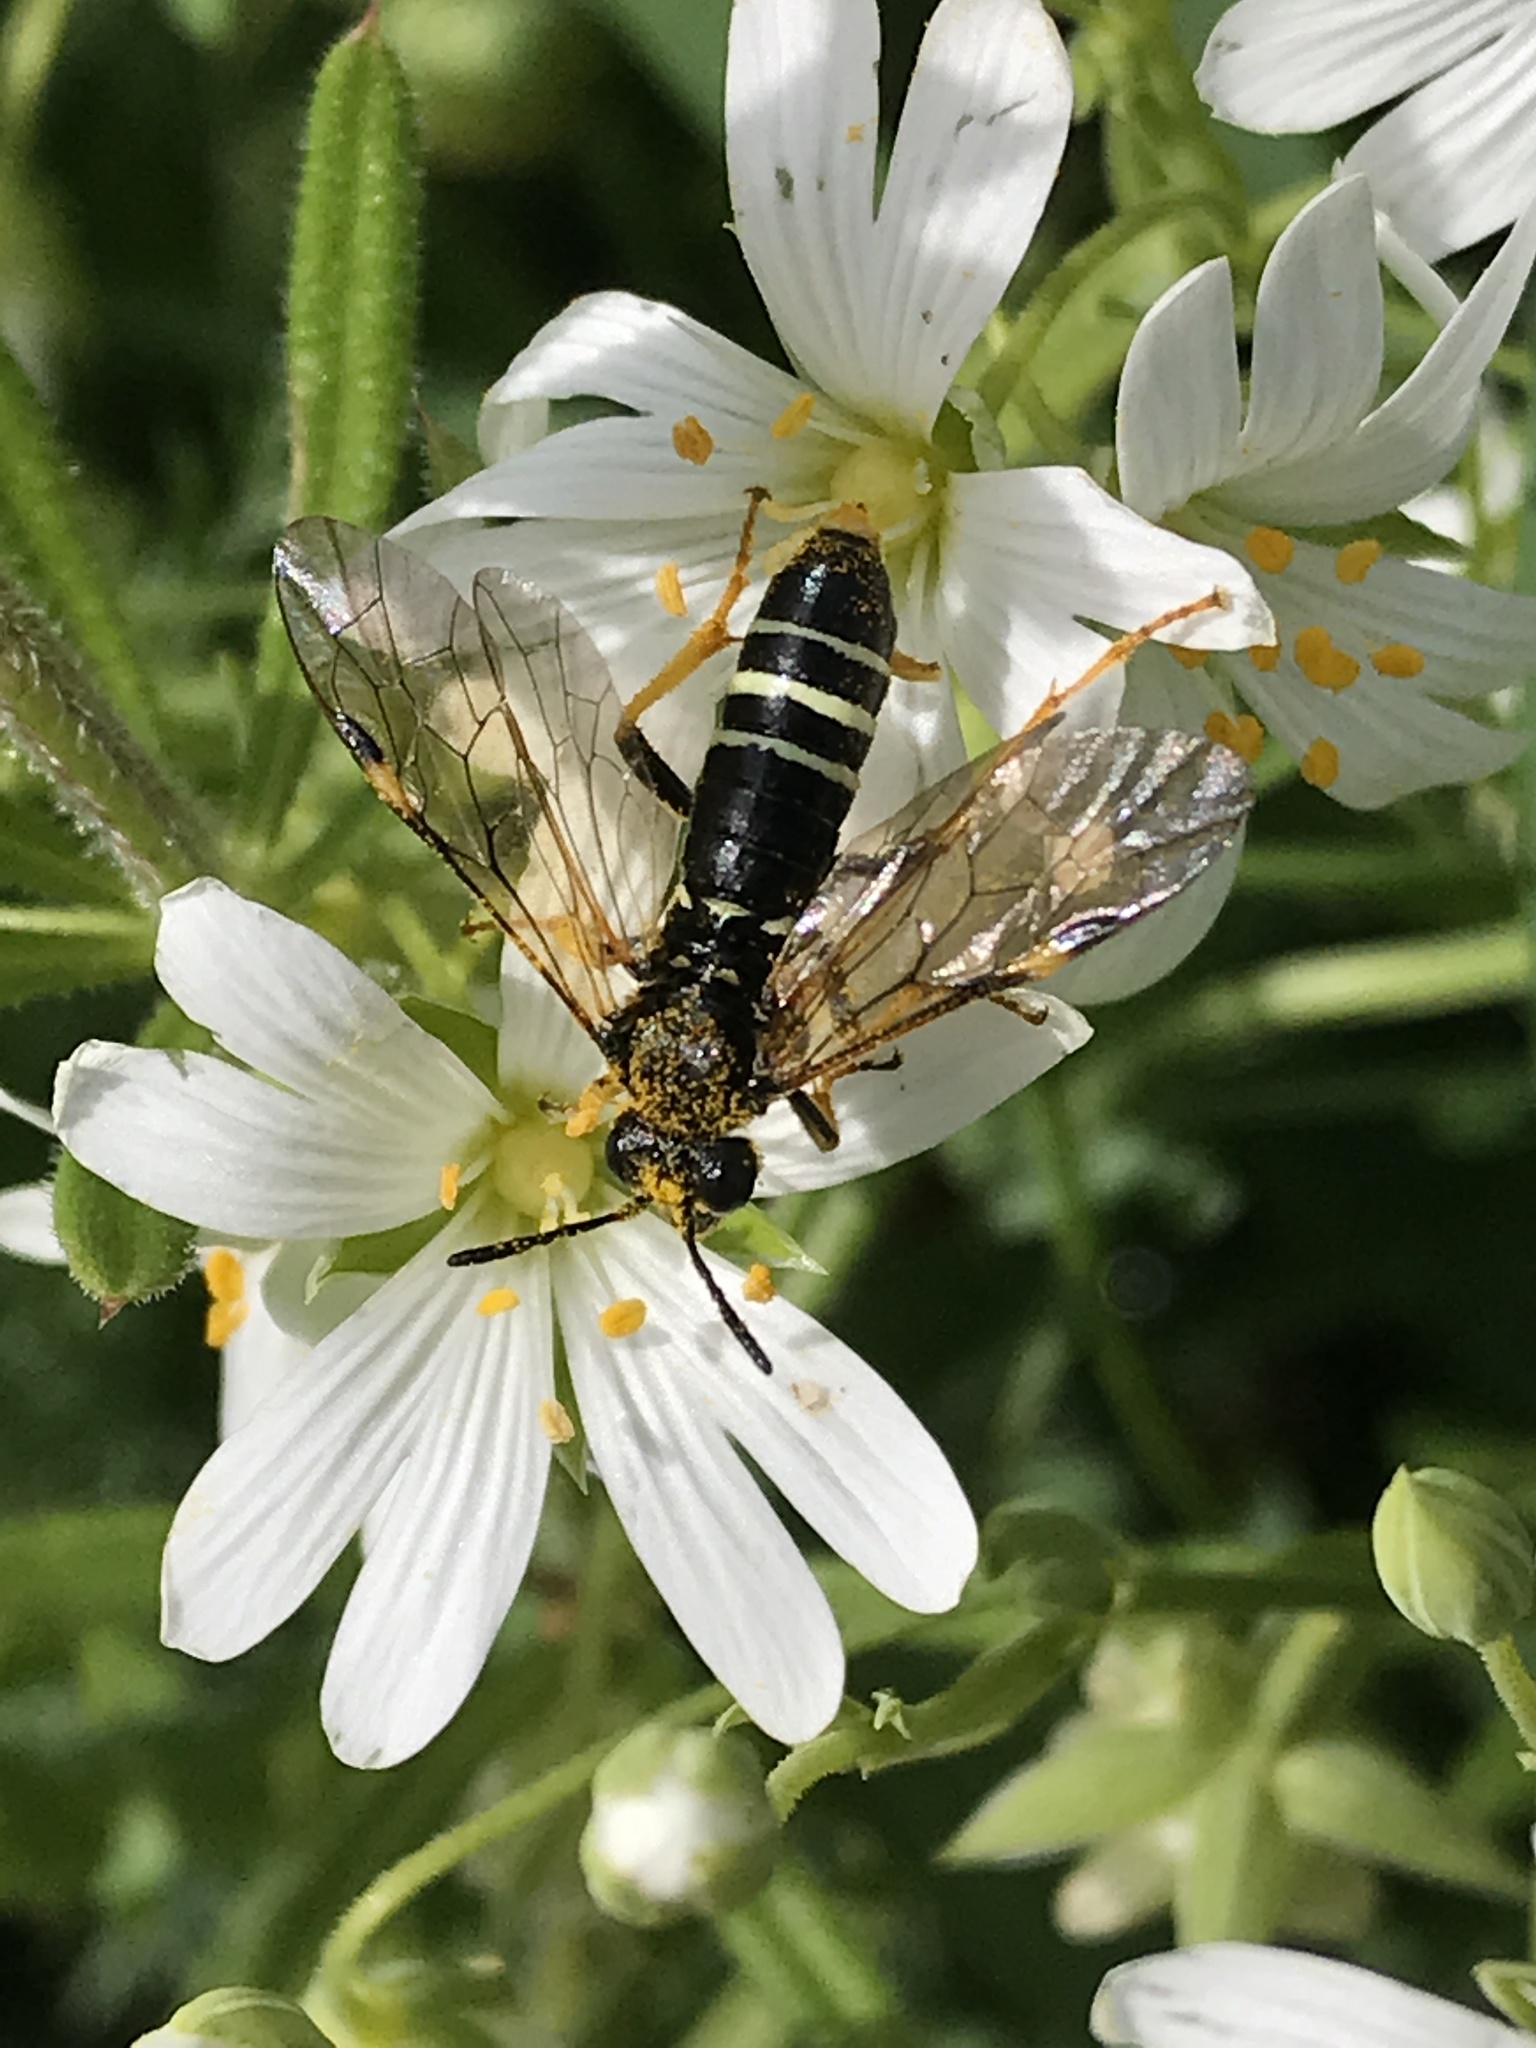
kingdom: Animalia
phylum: Arthropoda
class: Insecta
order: Hymenoptera
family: Tenthredinidae
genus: Tenthredo
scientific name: Tenthredo koehleri
